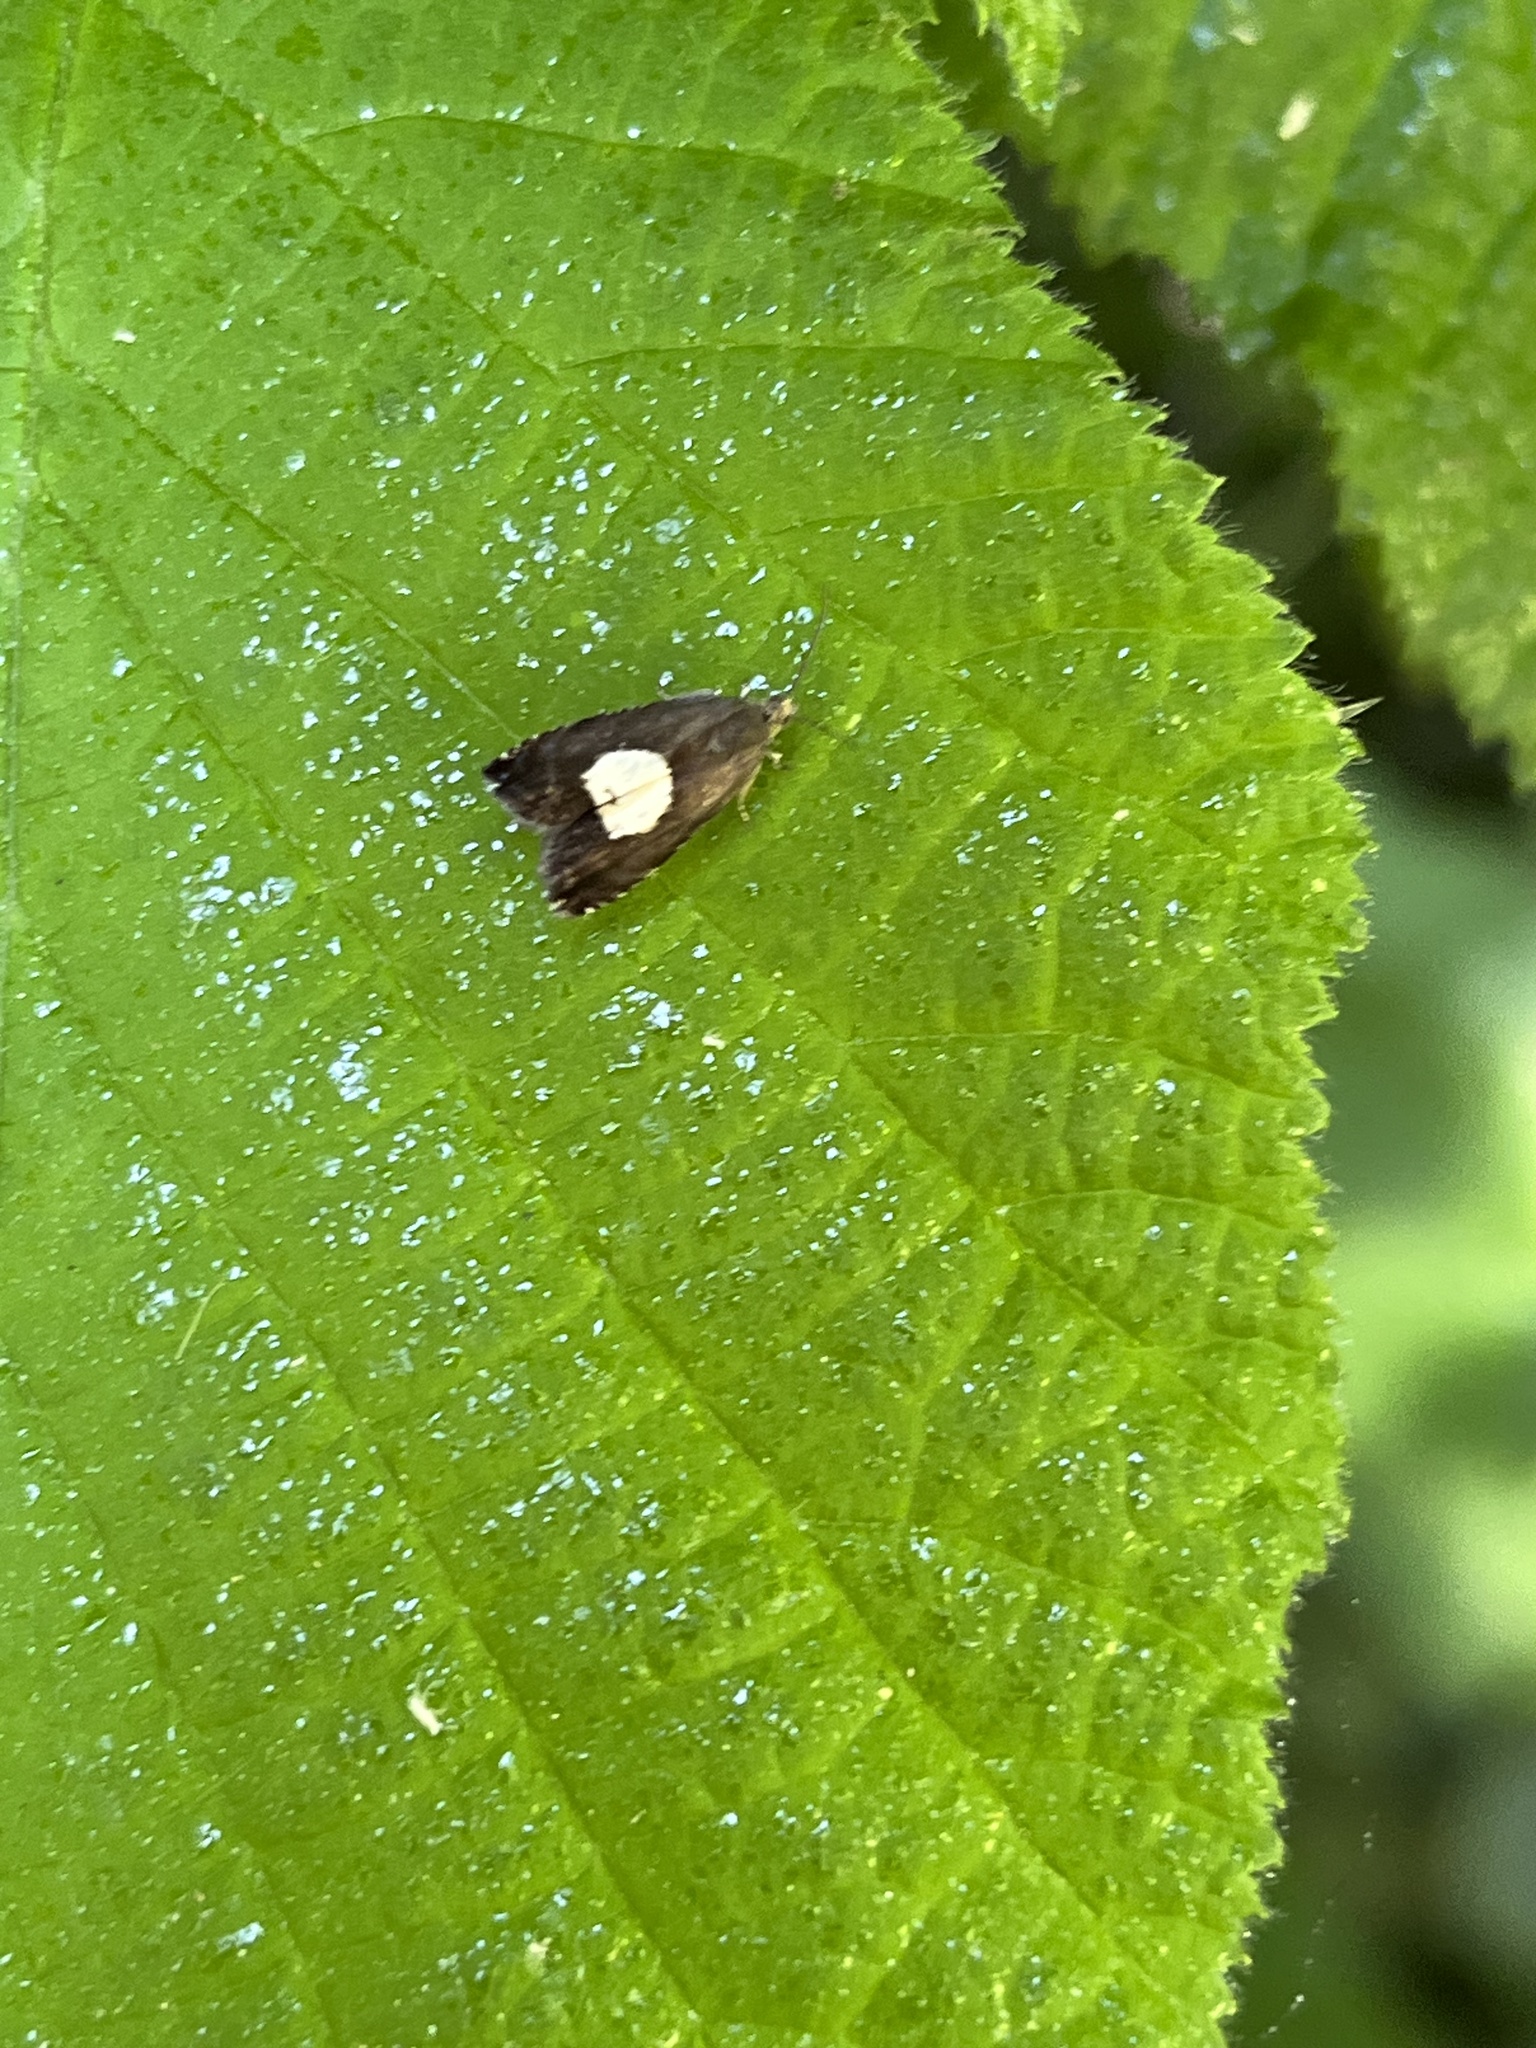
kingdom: Animalia
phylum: Arthropoda
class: Insecta
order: Lepidoptera
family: Tortricidae
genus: Pammene
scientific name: Pammene regiana
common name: Regal piercer
